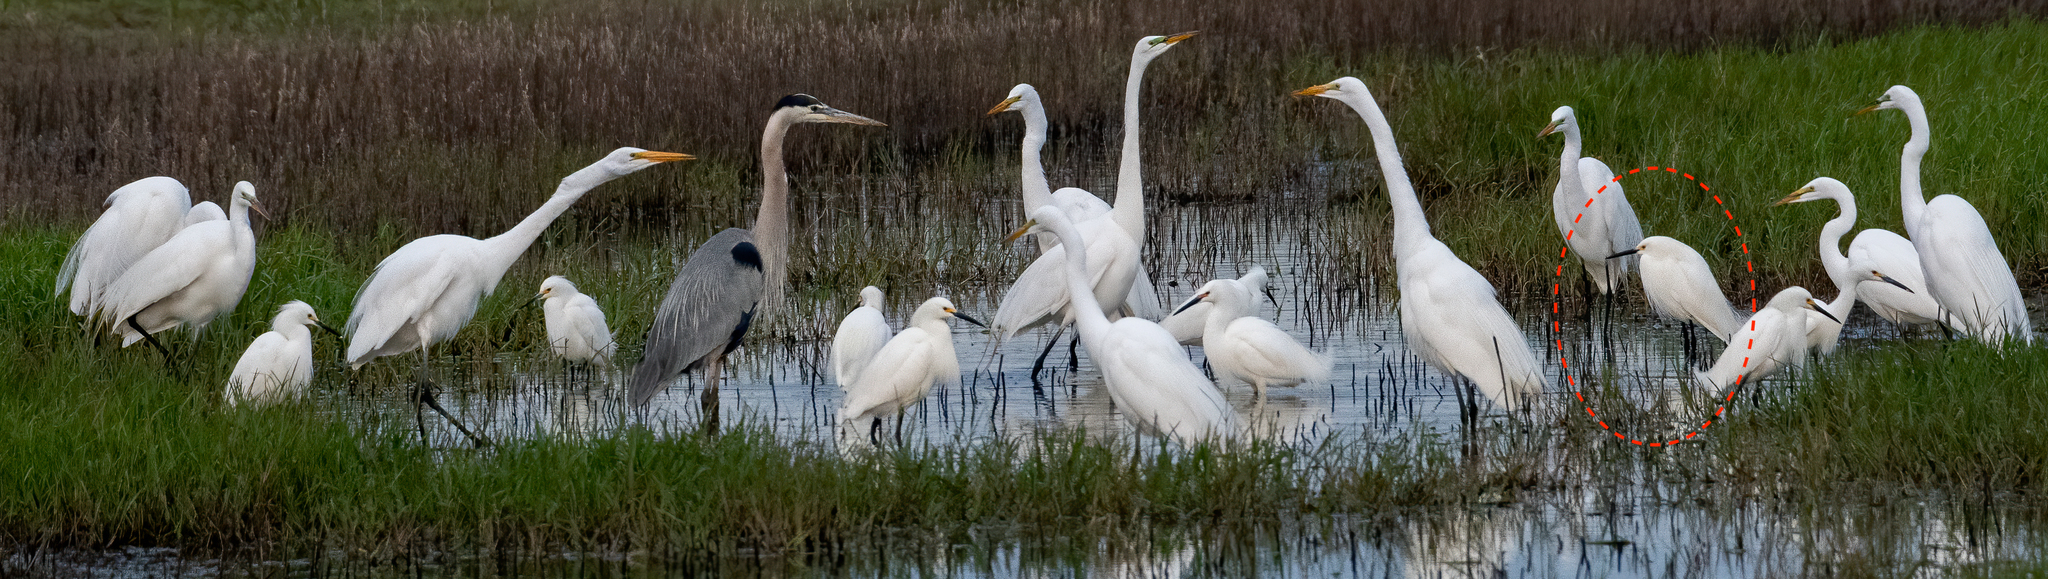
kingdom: Animalia
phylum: Chordata
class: Aves
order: Pelecaniformes
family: Ardeidae
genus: Egretta
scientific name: Egretta thula
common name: Snowy egret
